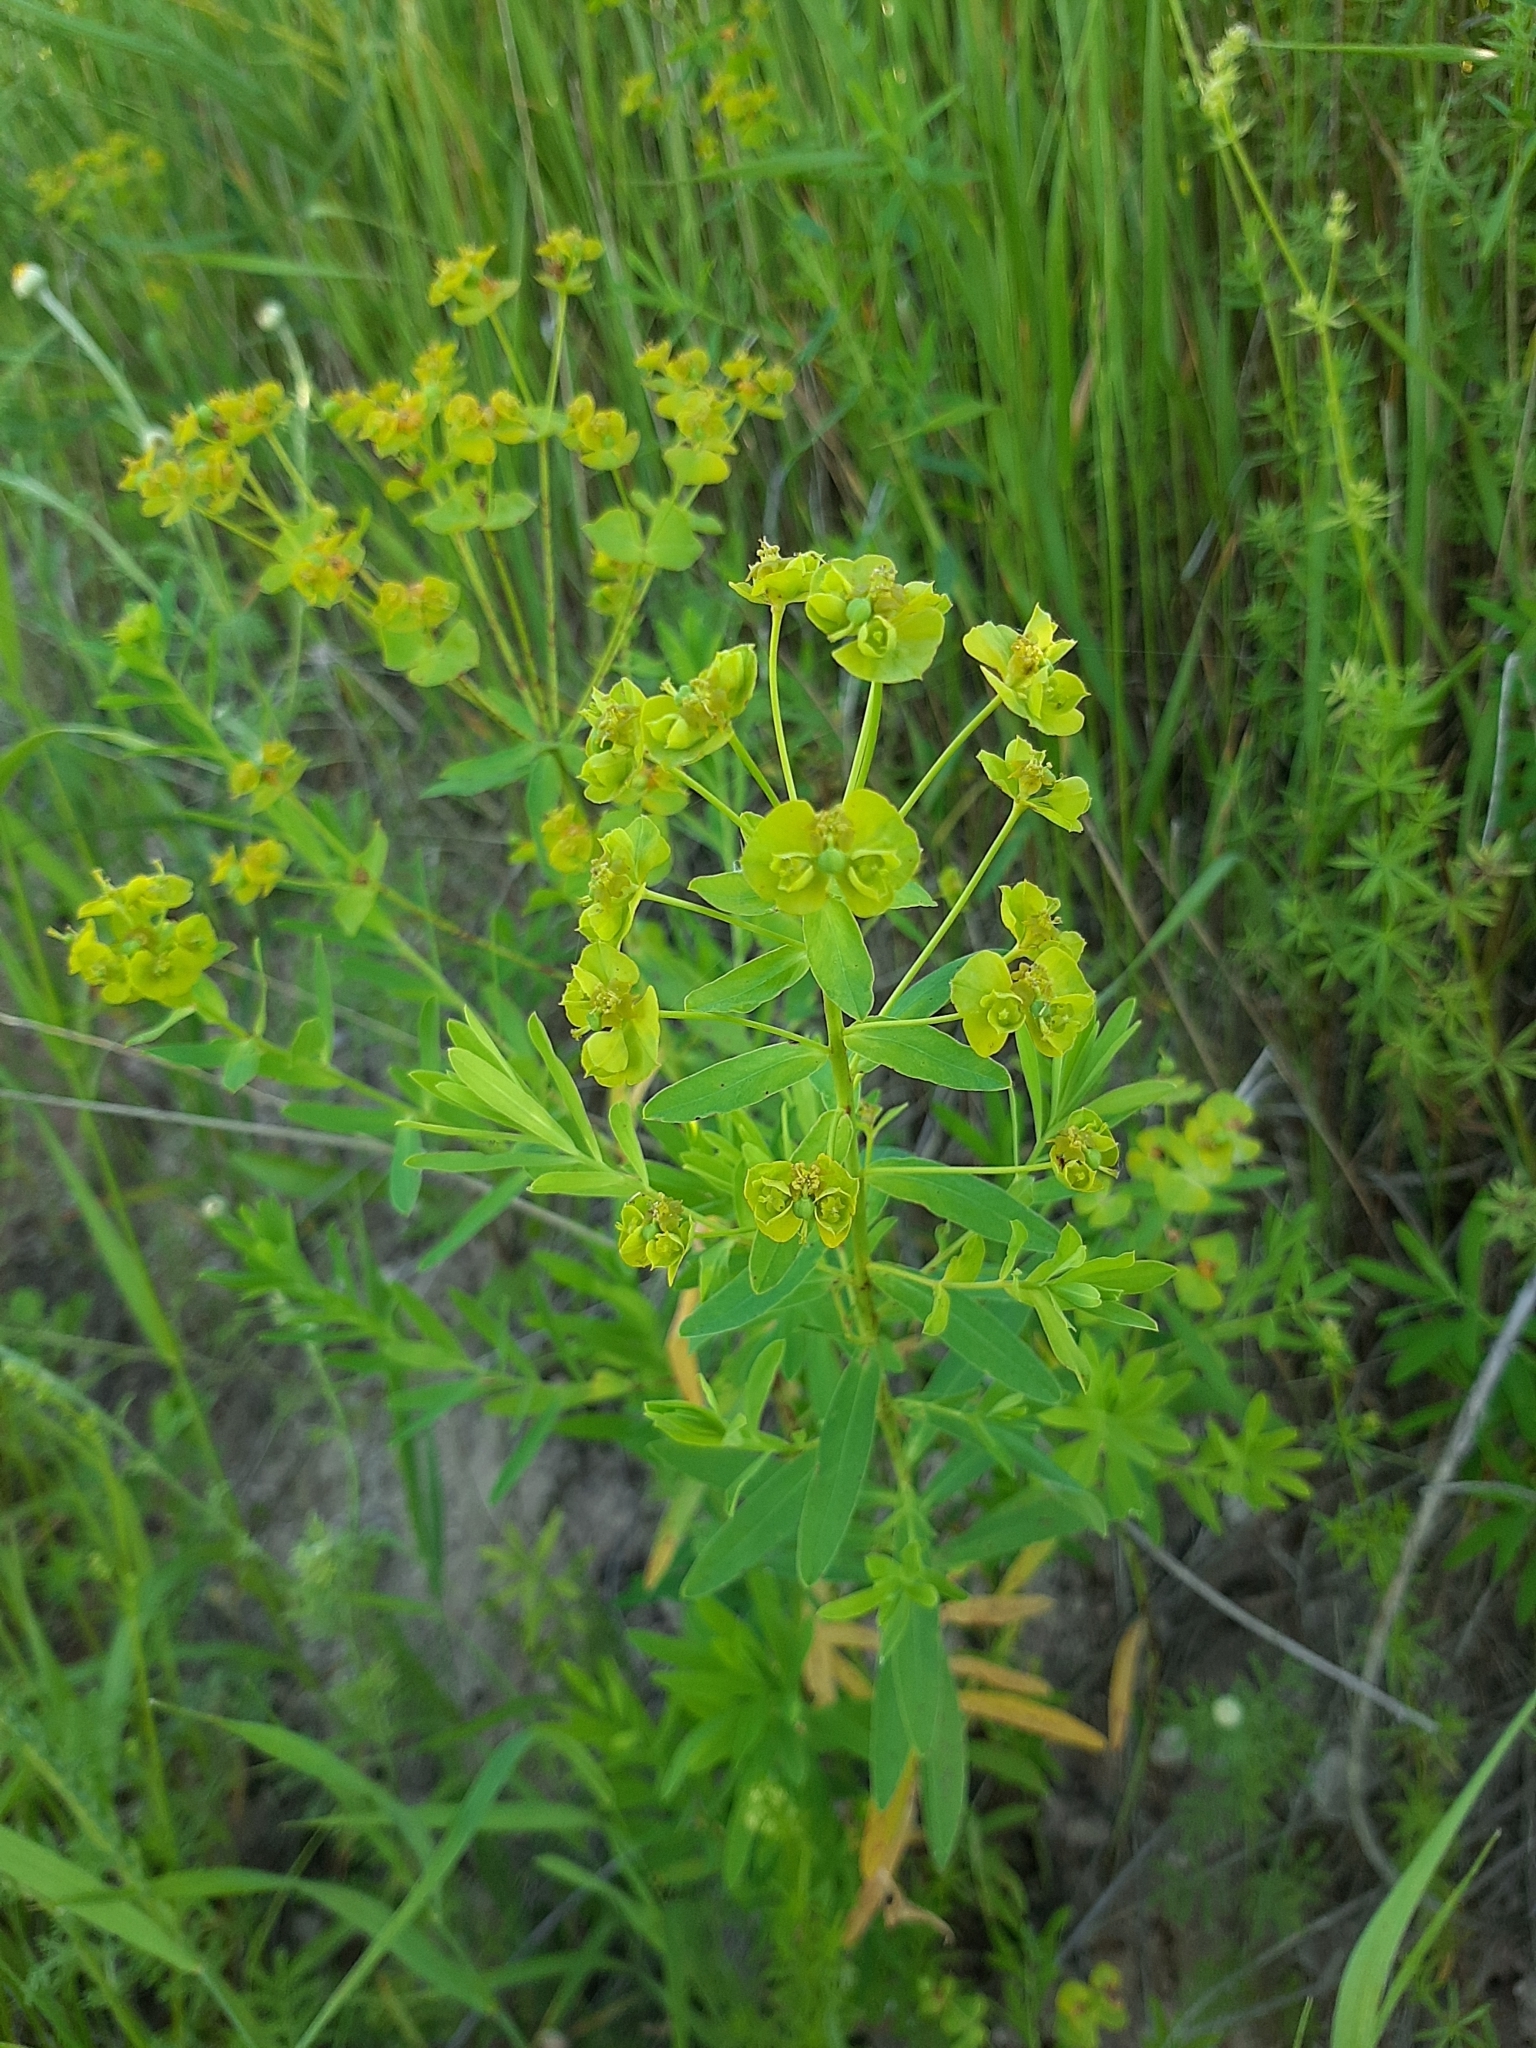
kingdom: Plantae
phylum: Tracheophyta
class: Magnoliopsida
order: Malpighiales
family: Euphorbiaceae
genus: Euphorbia
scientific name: Euphorbia virgata
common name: Leafy spurge
